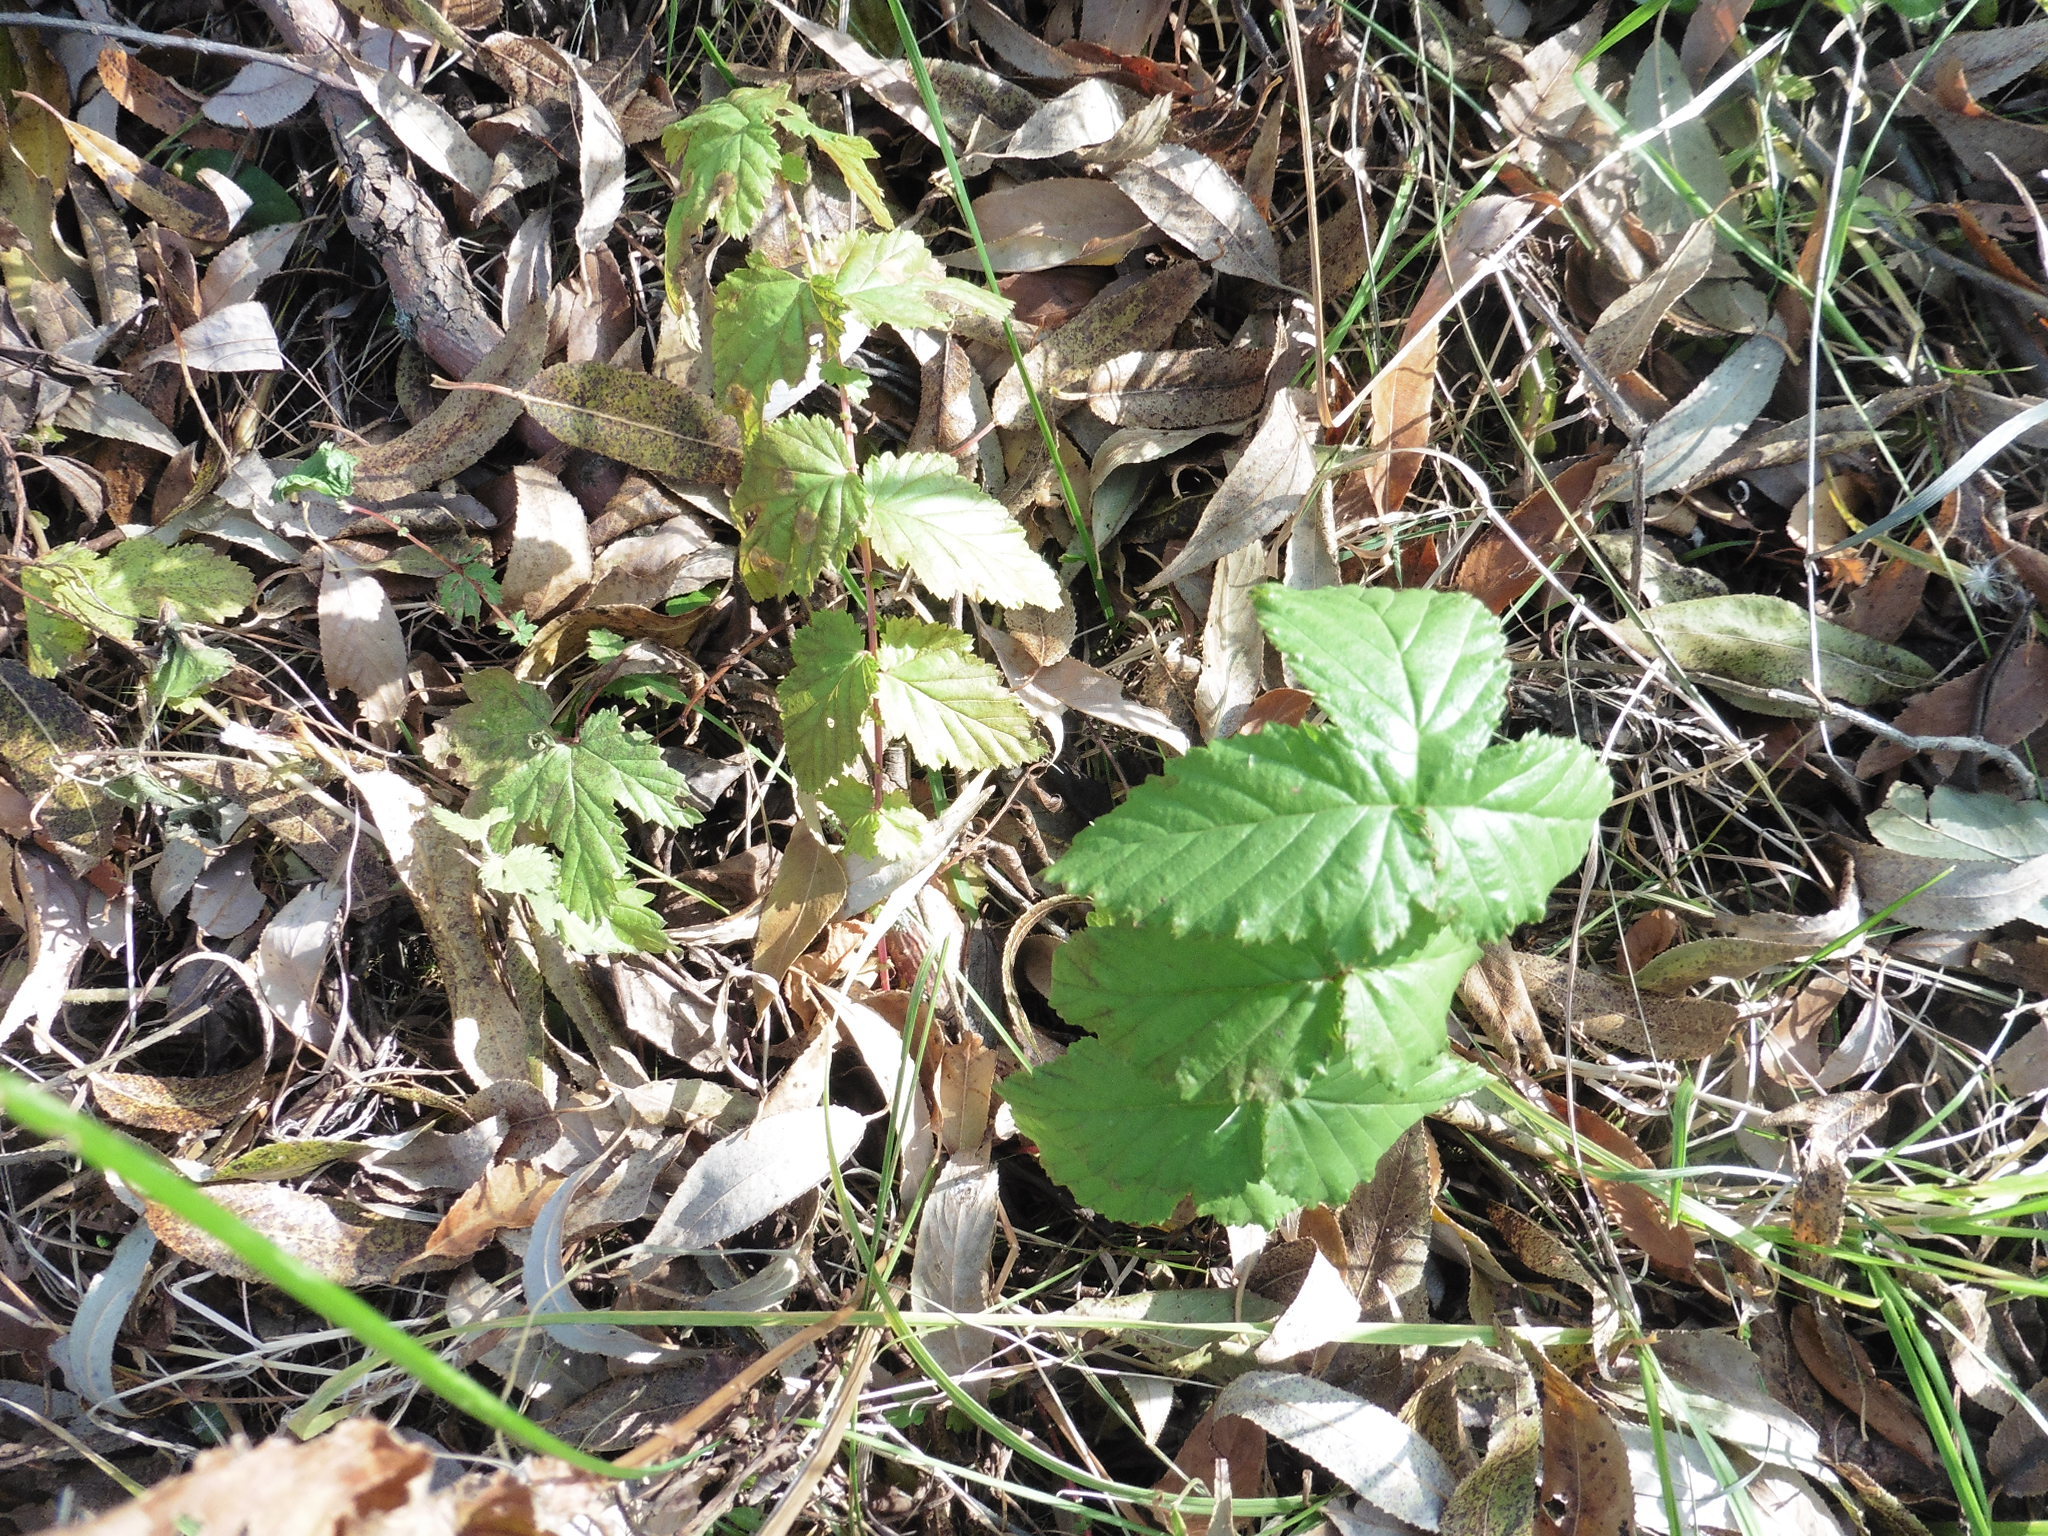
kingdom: Plantae
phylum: Tracheophyta
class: Magnoliopsida
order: Rosales
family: Rosaceae
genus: Filipendula
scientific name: Filipendula ulmaria
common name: Meadowsweet
